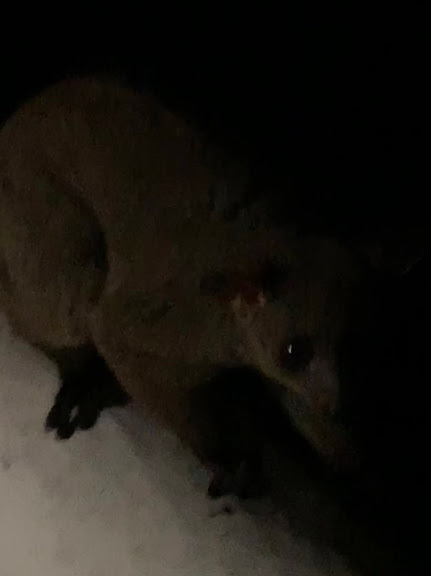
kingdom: Animalia
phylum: Chordata
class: Mammalia
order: Primates
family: Galagidae
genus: Otolemur
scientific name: Otolemur garnettii
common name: Northern greater galago
